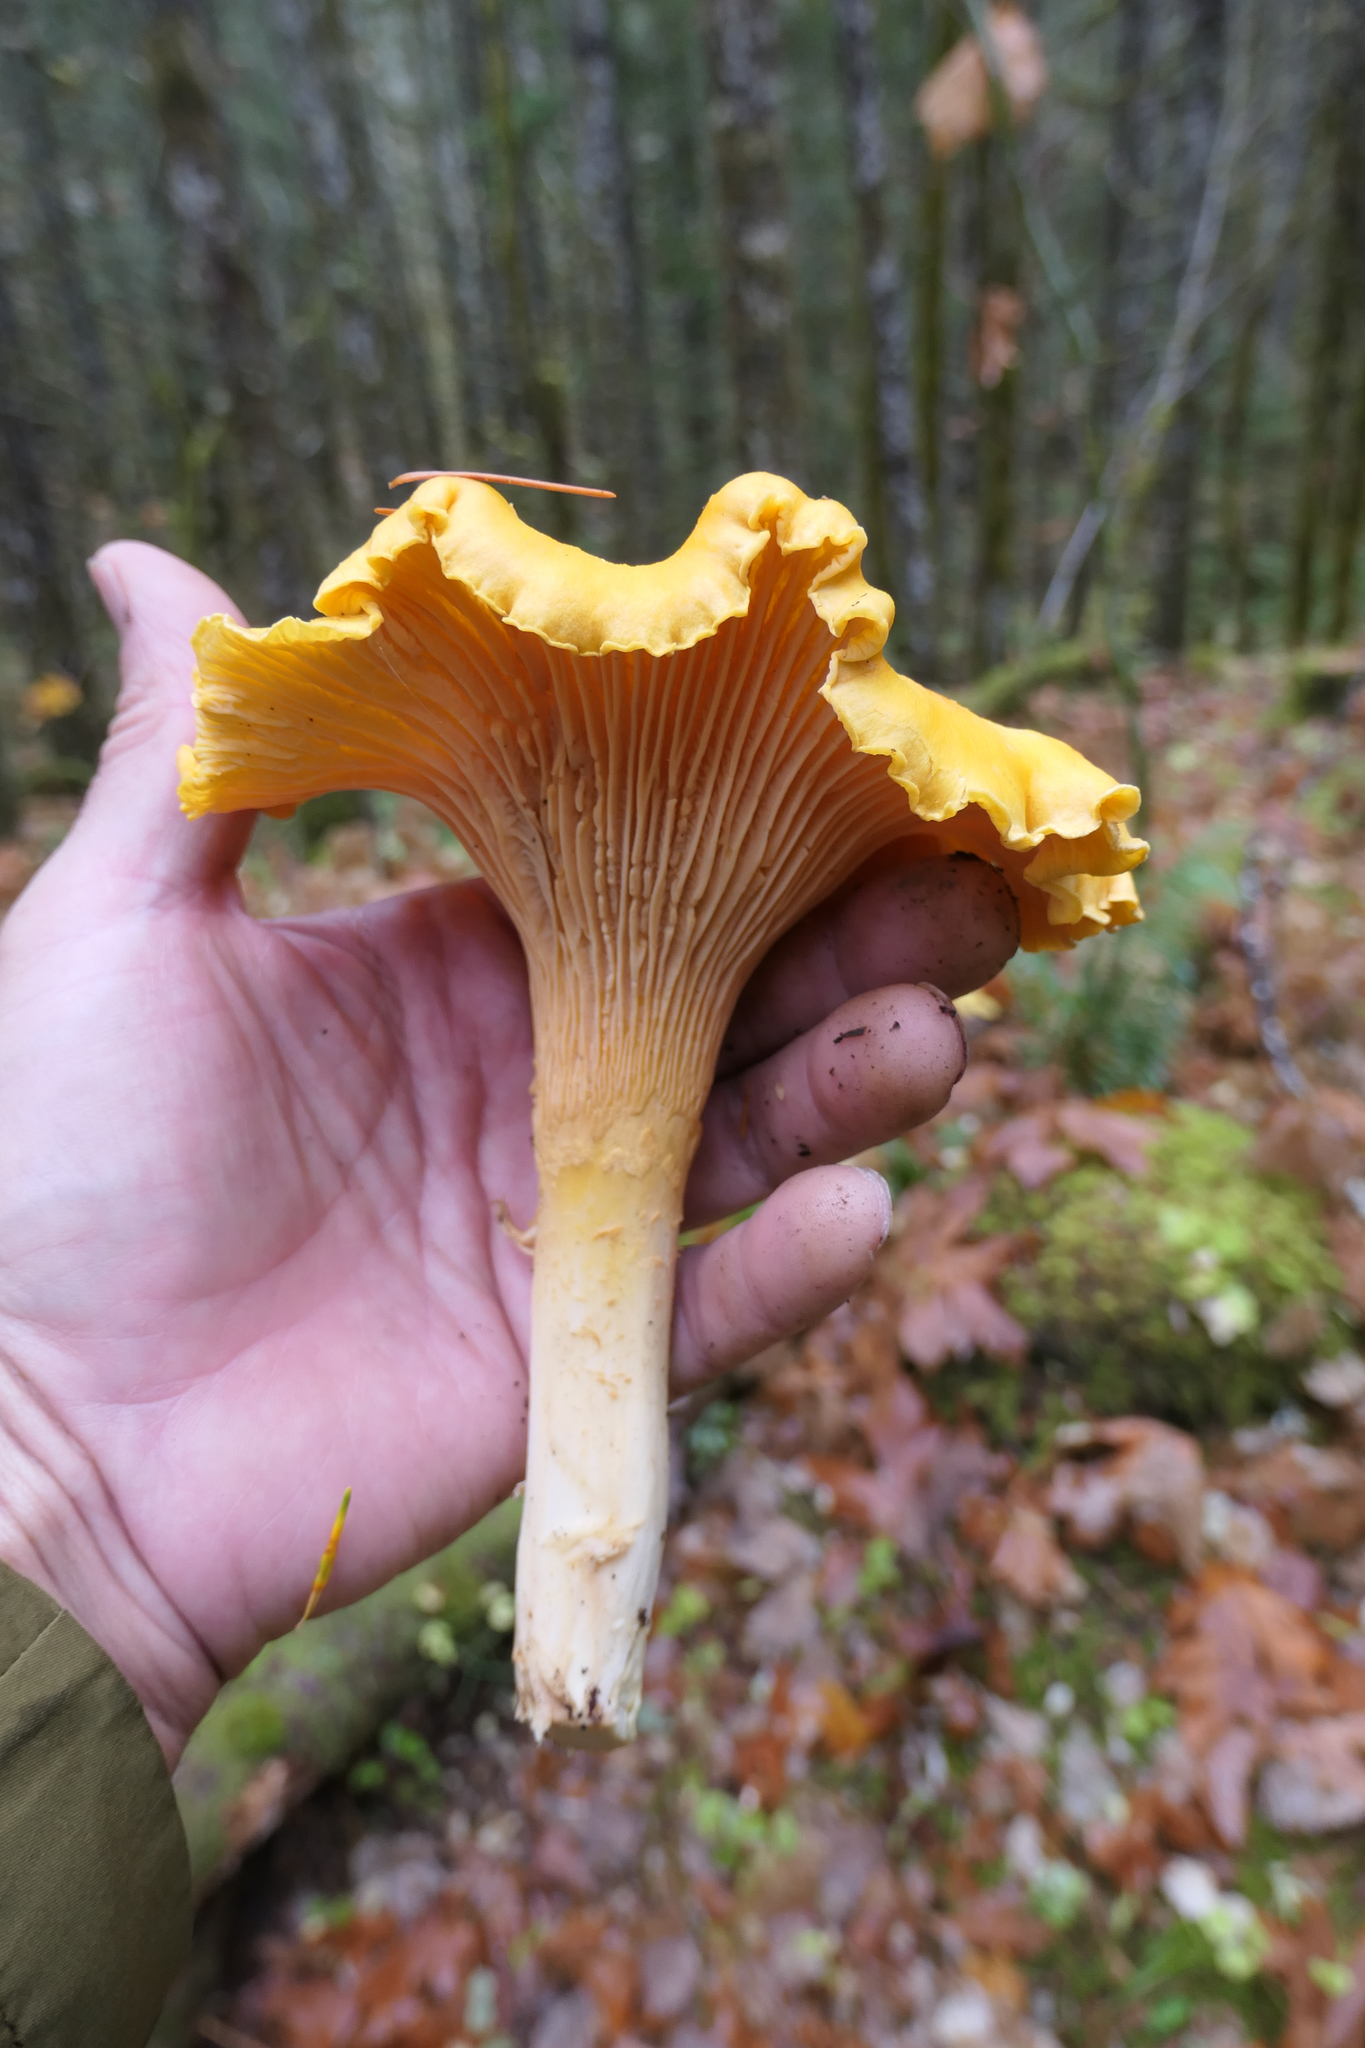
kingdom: Fungi
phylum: Basidiomycota
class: Agaricomycetes
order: Cantharellales
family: Hydnaceae
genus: Cantharellus
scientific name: Cantharellus formosus
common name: Pacific golden chanterelle
